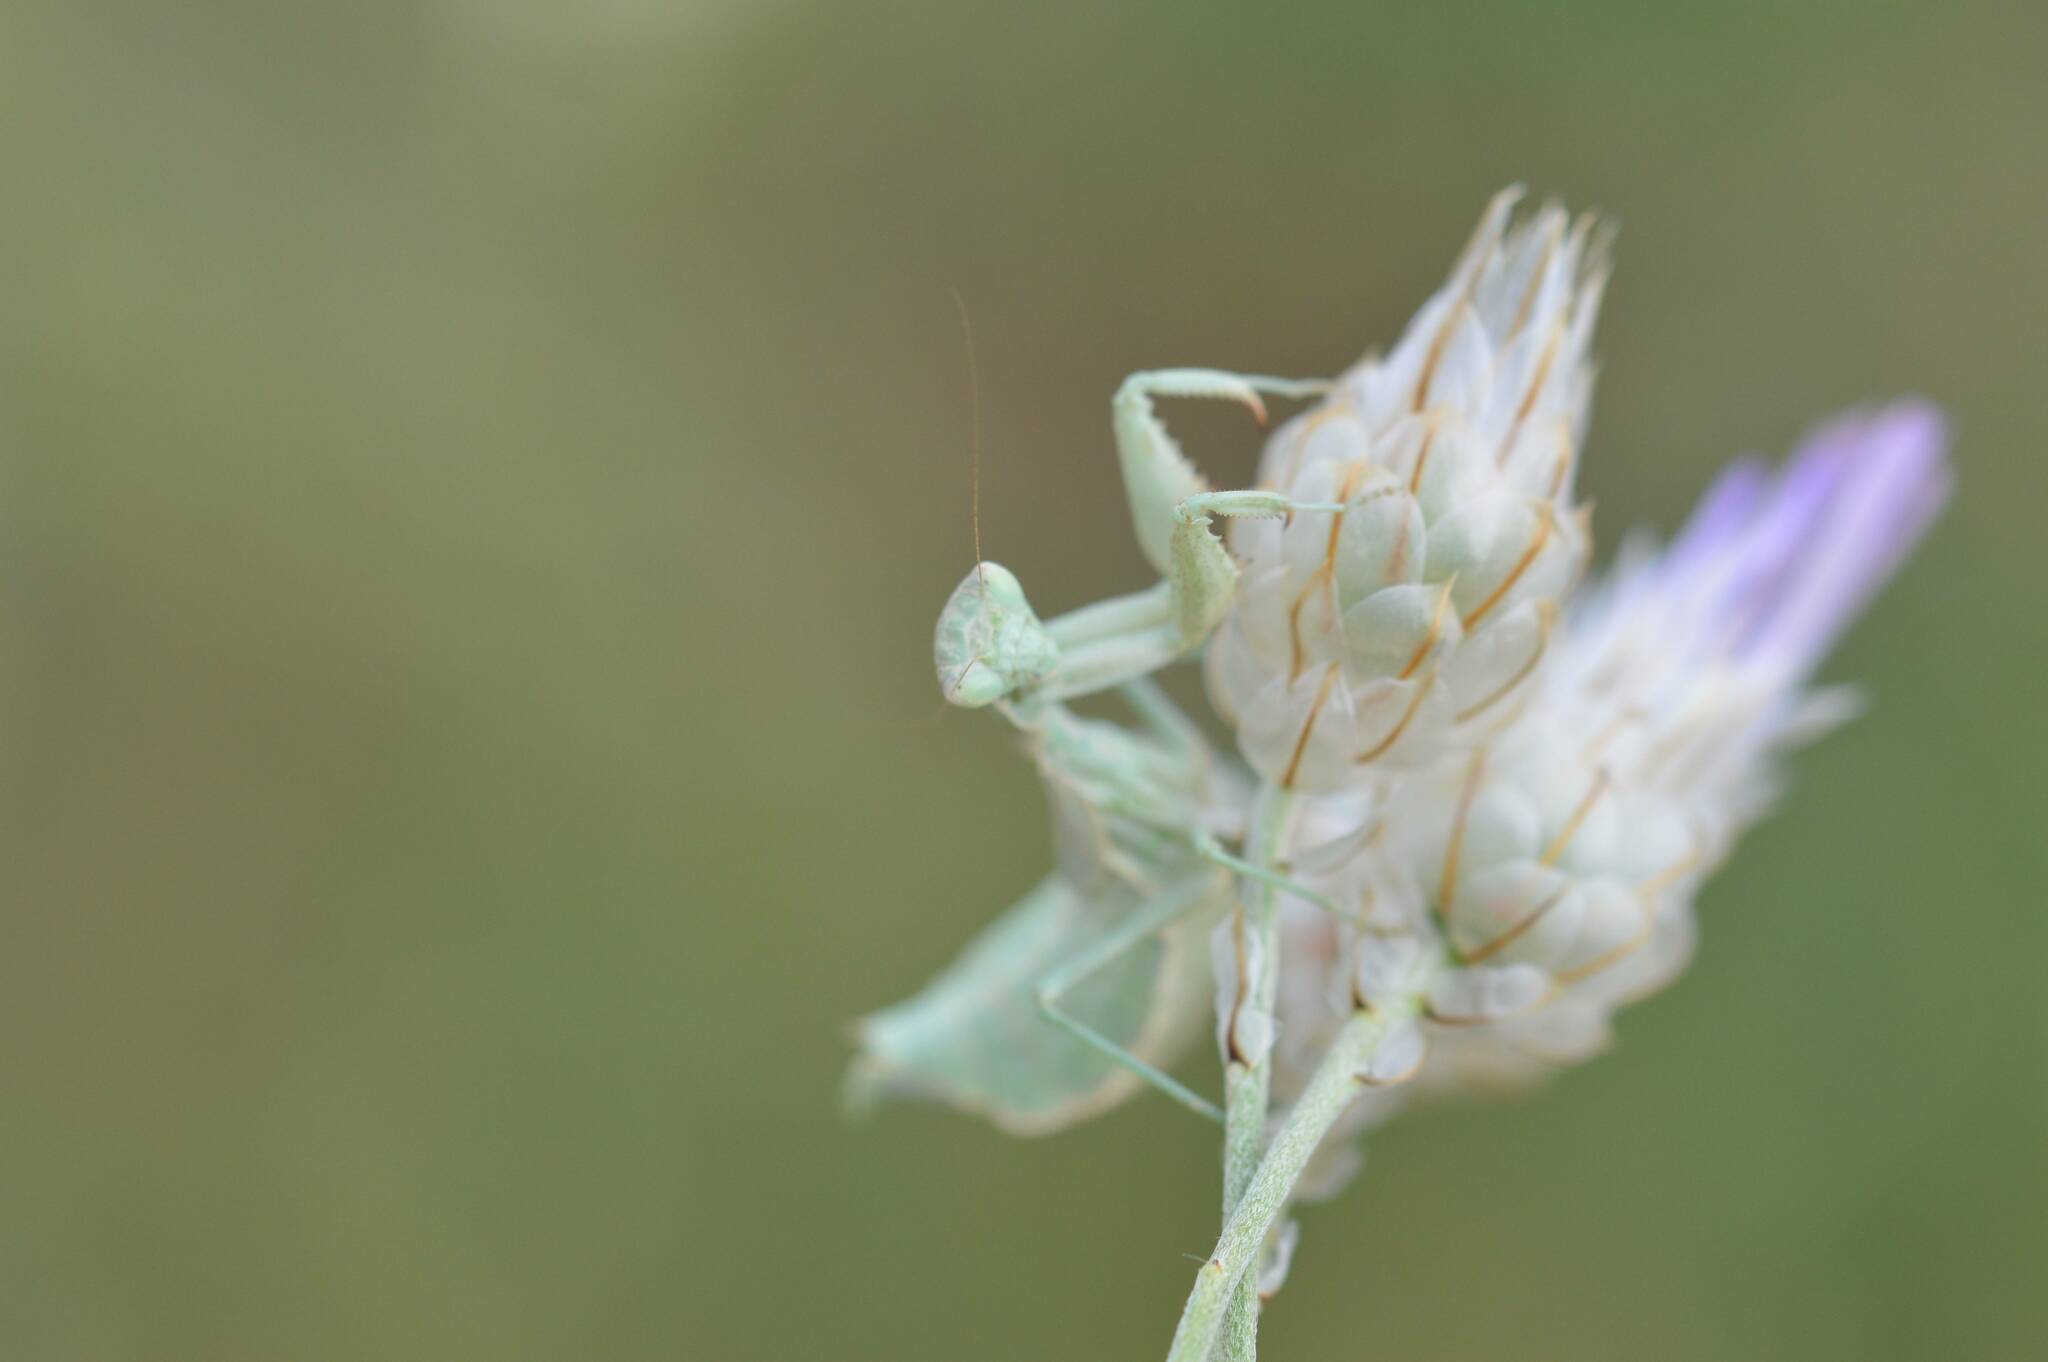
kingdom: Animalia
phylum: Arthropoda
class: Insecta
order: Mantodea
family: Amelidae
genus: Ameles
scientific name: Ameles spallanzania
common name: European dwarf mantis
